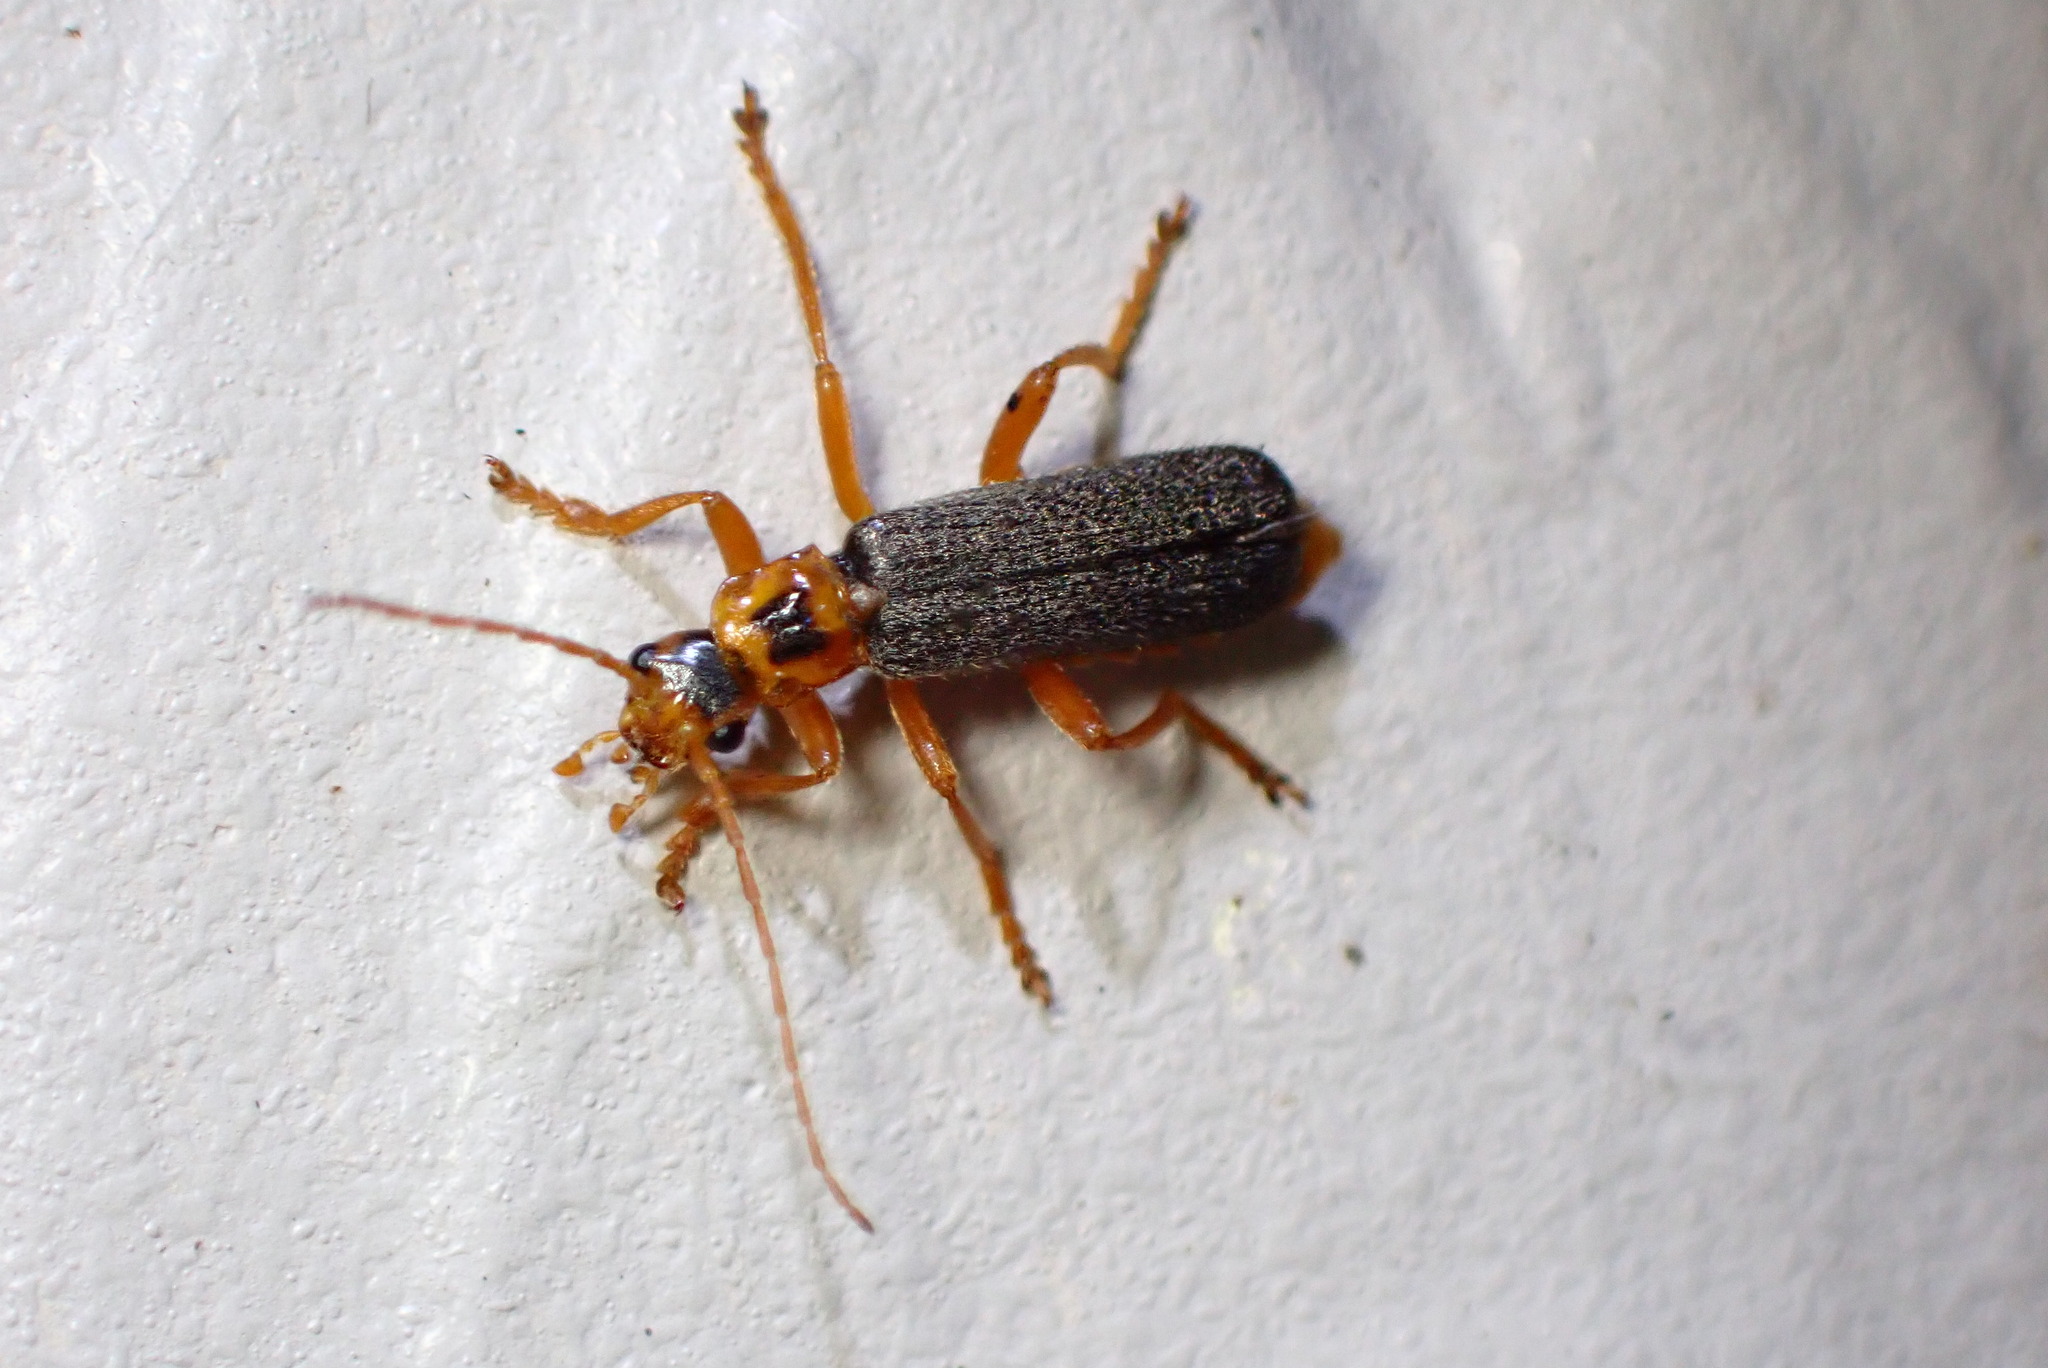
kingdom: Animalia
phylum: Arthropoda
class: Insecta
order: Coleoptera
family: Cantharidae
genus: Cultellunguis
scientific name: Cultellunguis americanus
